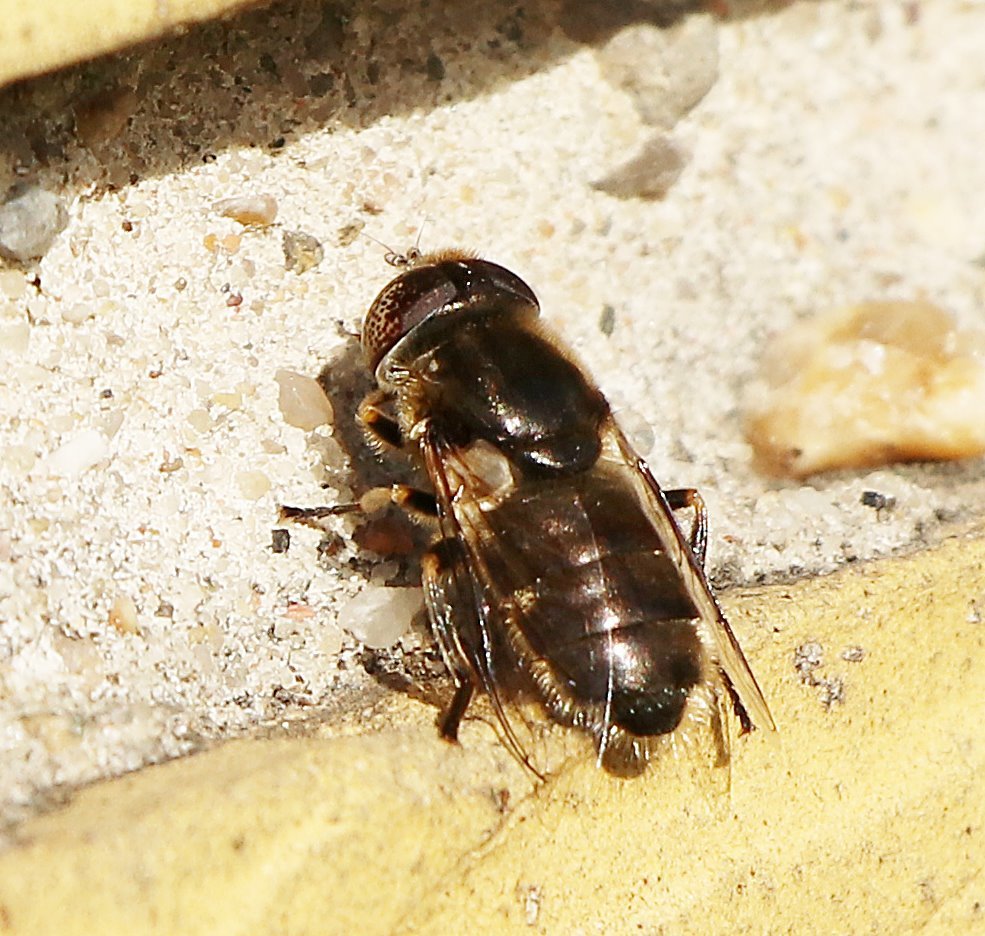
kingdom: Animalia
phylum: Arthropoda
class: Insecta
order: Diptera
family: Syrphidae
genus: Eristalinus
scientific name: Eristalinus aeneus
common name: Syrphid fly
